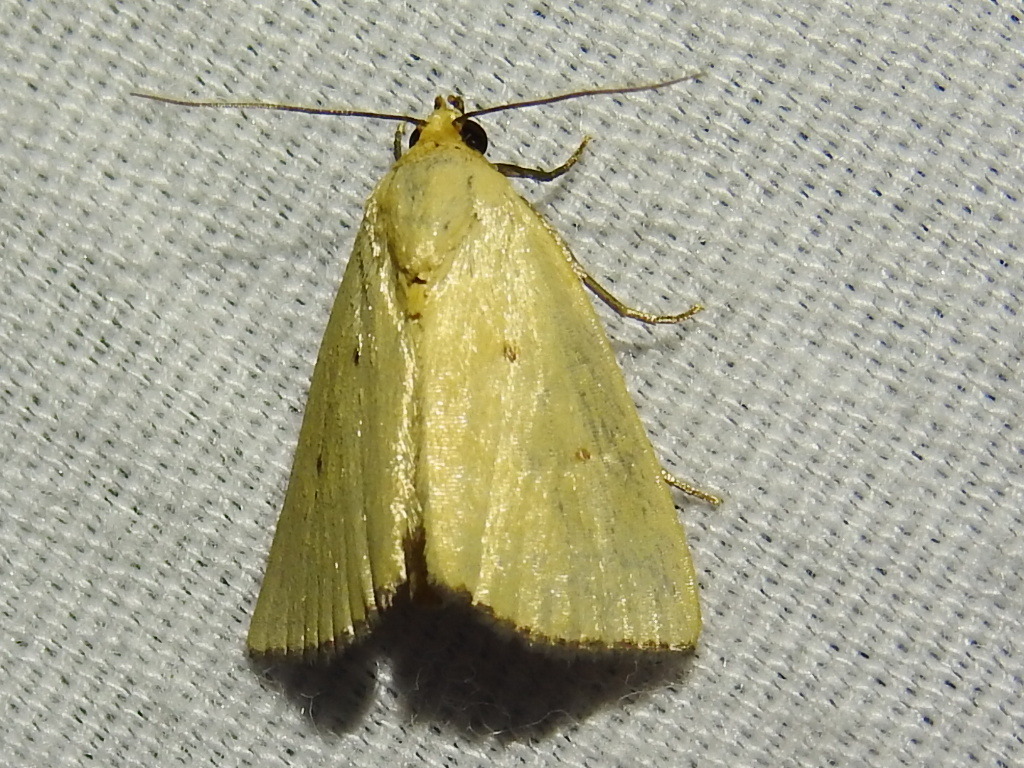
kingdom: Animalia
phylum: Arthropoda
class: Insecta
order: Lepidoptera
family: Noctuidae
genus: Marimatha
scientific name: Marimatha nigrofimbria
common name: Black-bordered lemon moth
